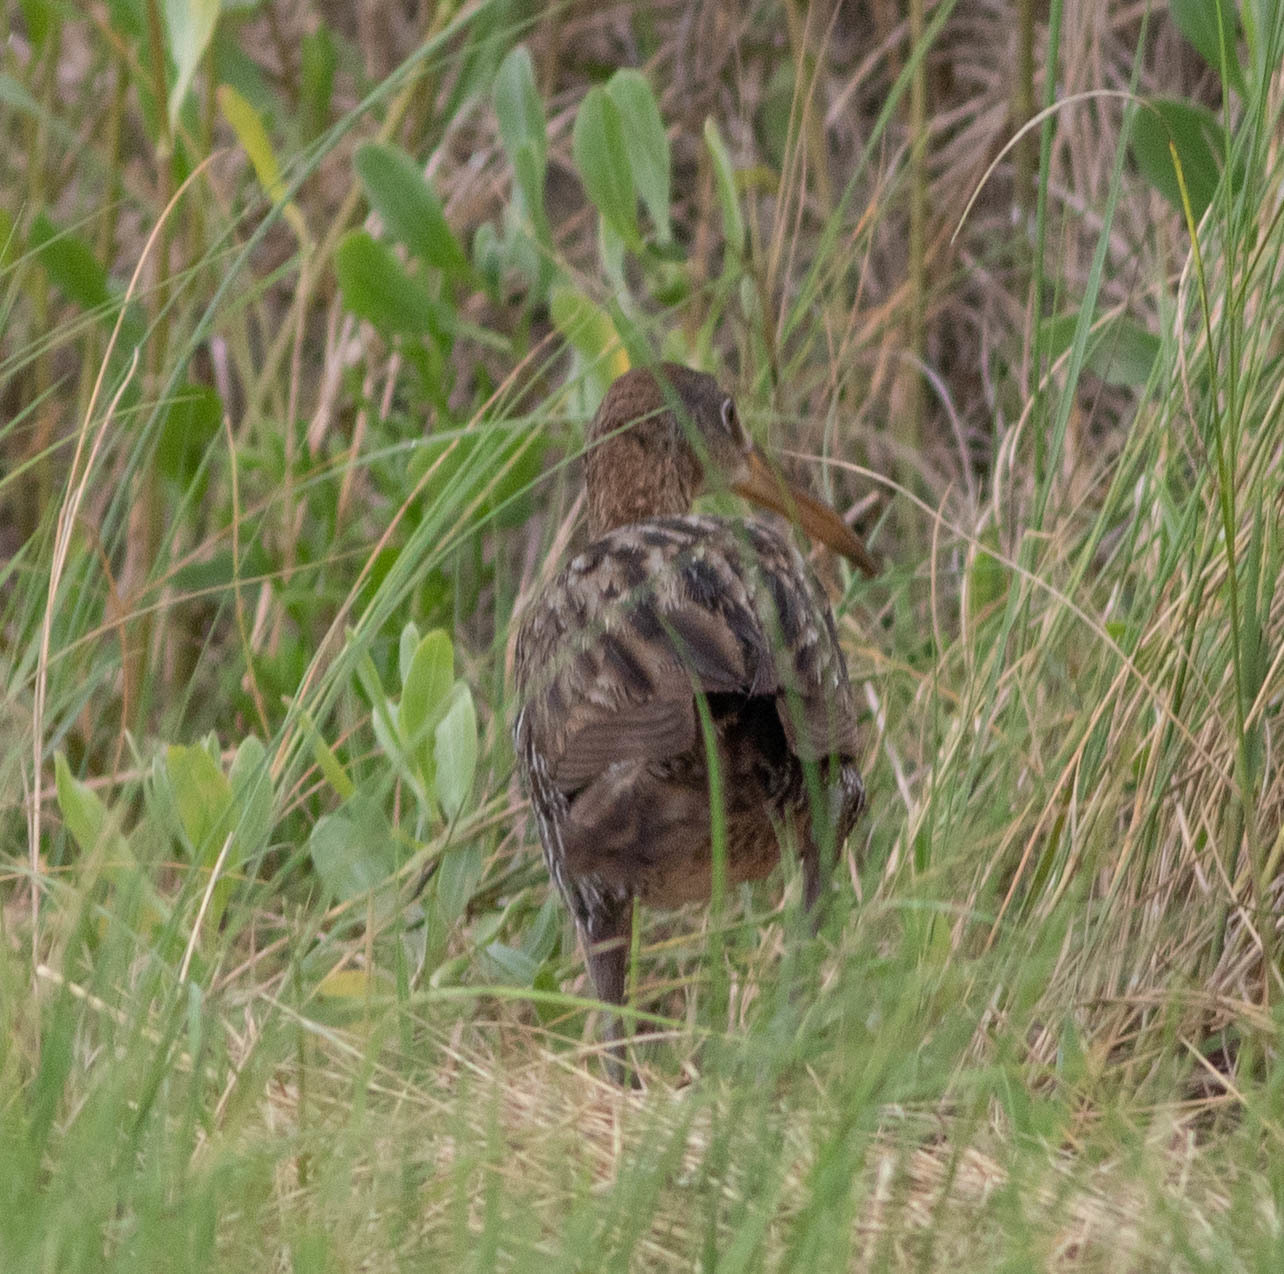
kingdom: Animalia
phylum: Chordata
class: Aves
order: Gruiformes
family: Rallidae
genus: Rallus
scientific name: Rallus crepitans
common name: Clapper rail
